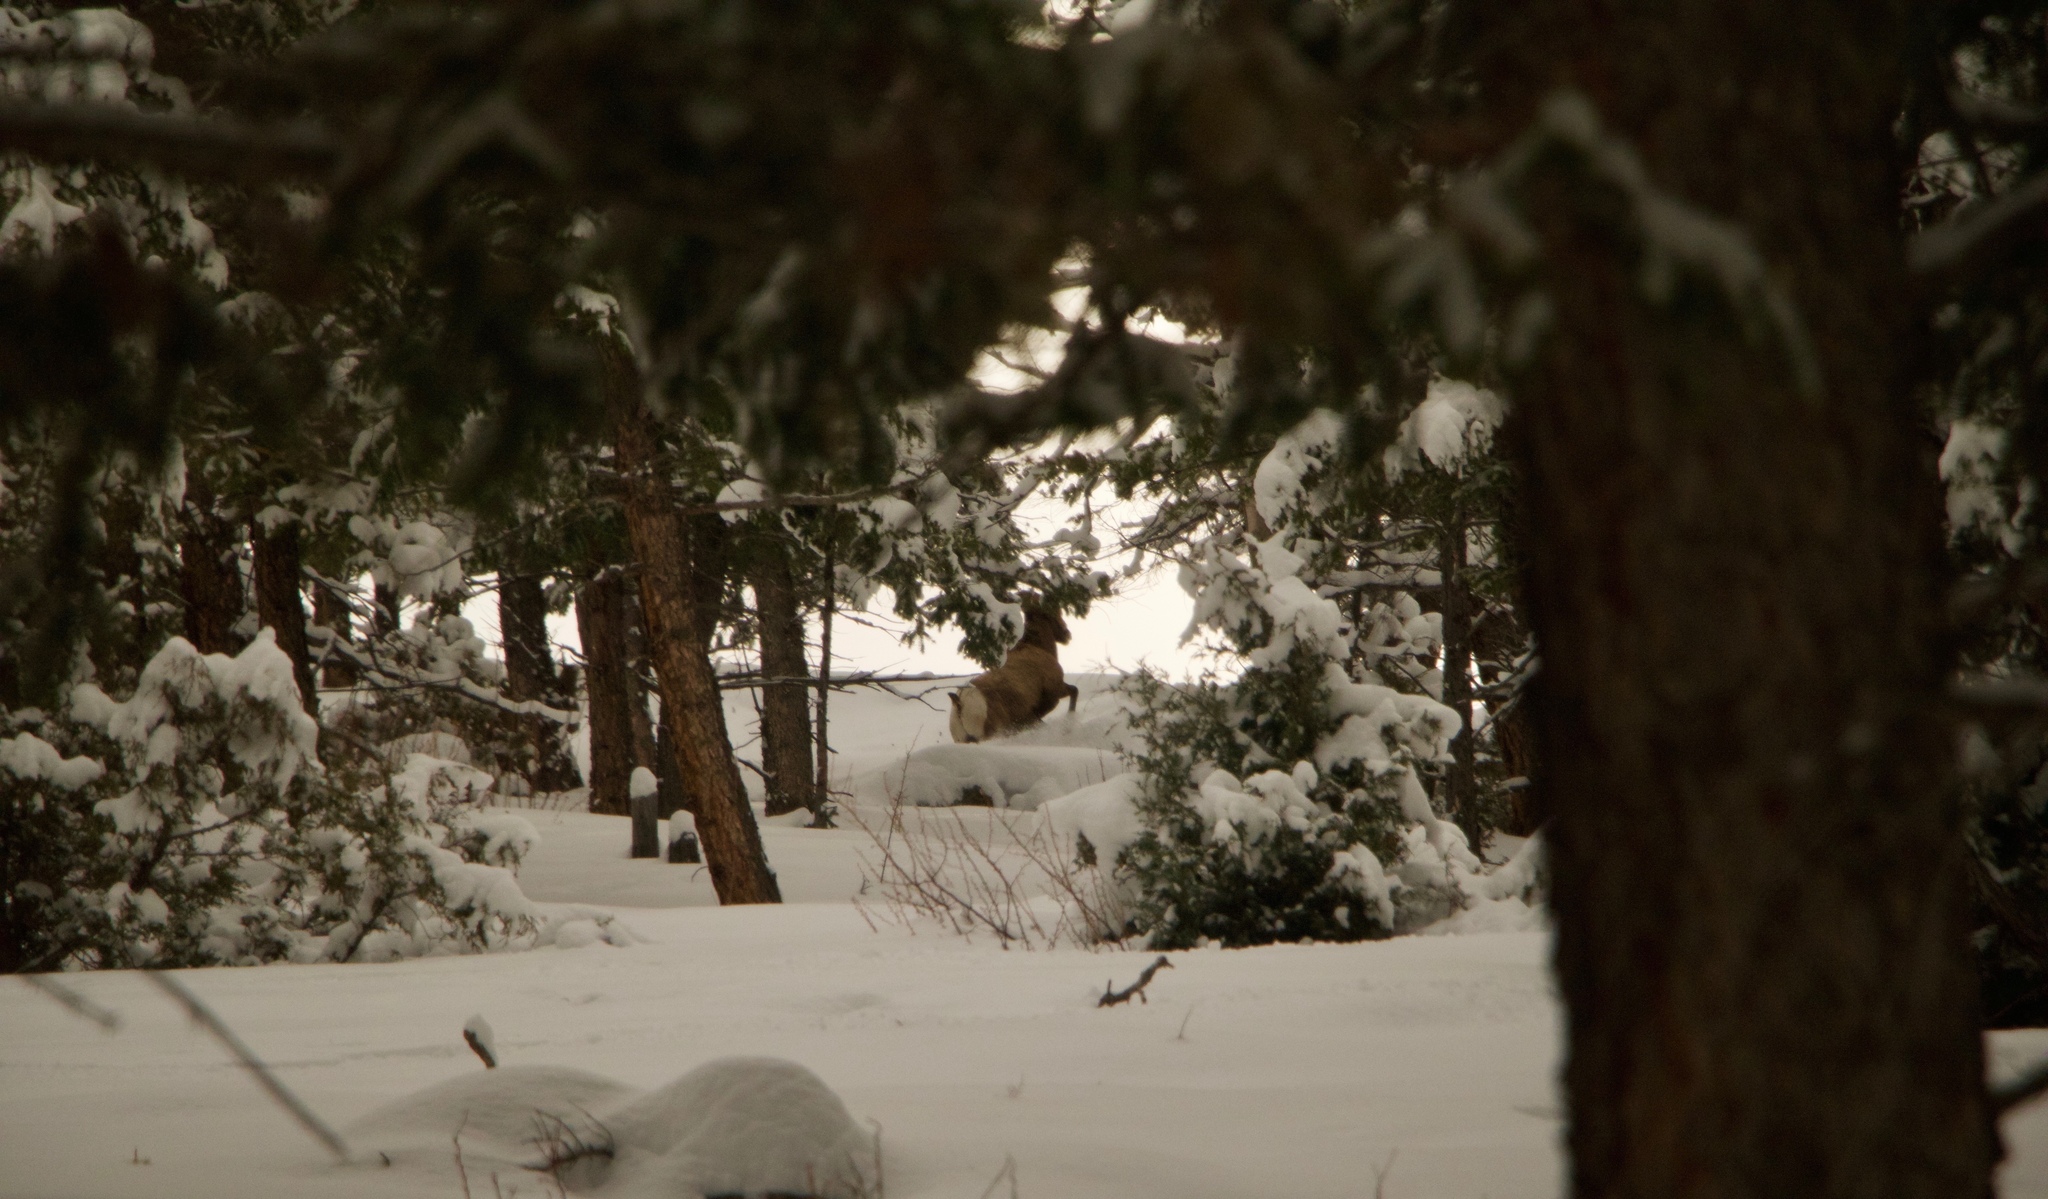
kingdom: Animalia
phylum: Chordata
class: Mammalia
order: Artiodactyla
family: Bovidae
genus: Ovis
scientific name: Ovis canadensis
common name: Bighorn sheep
